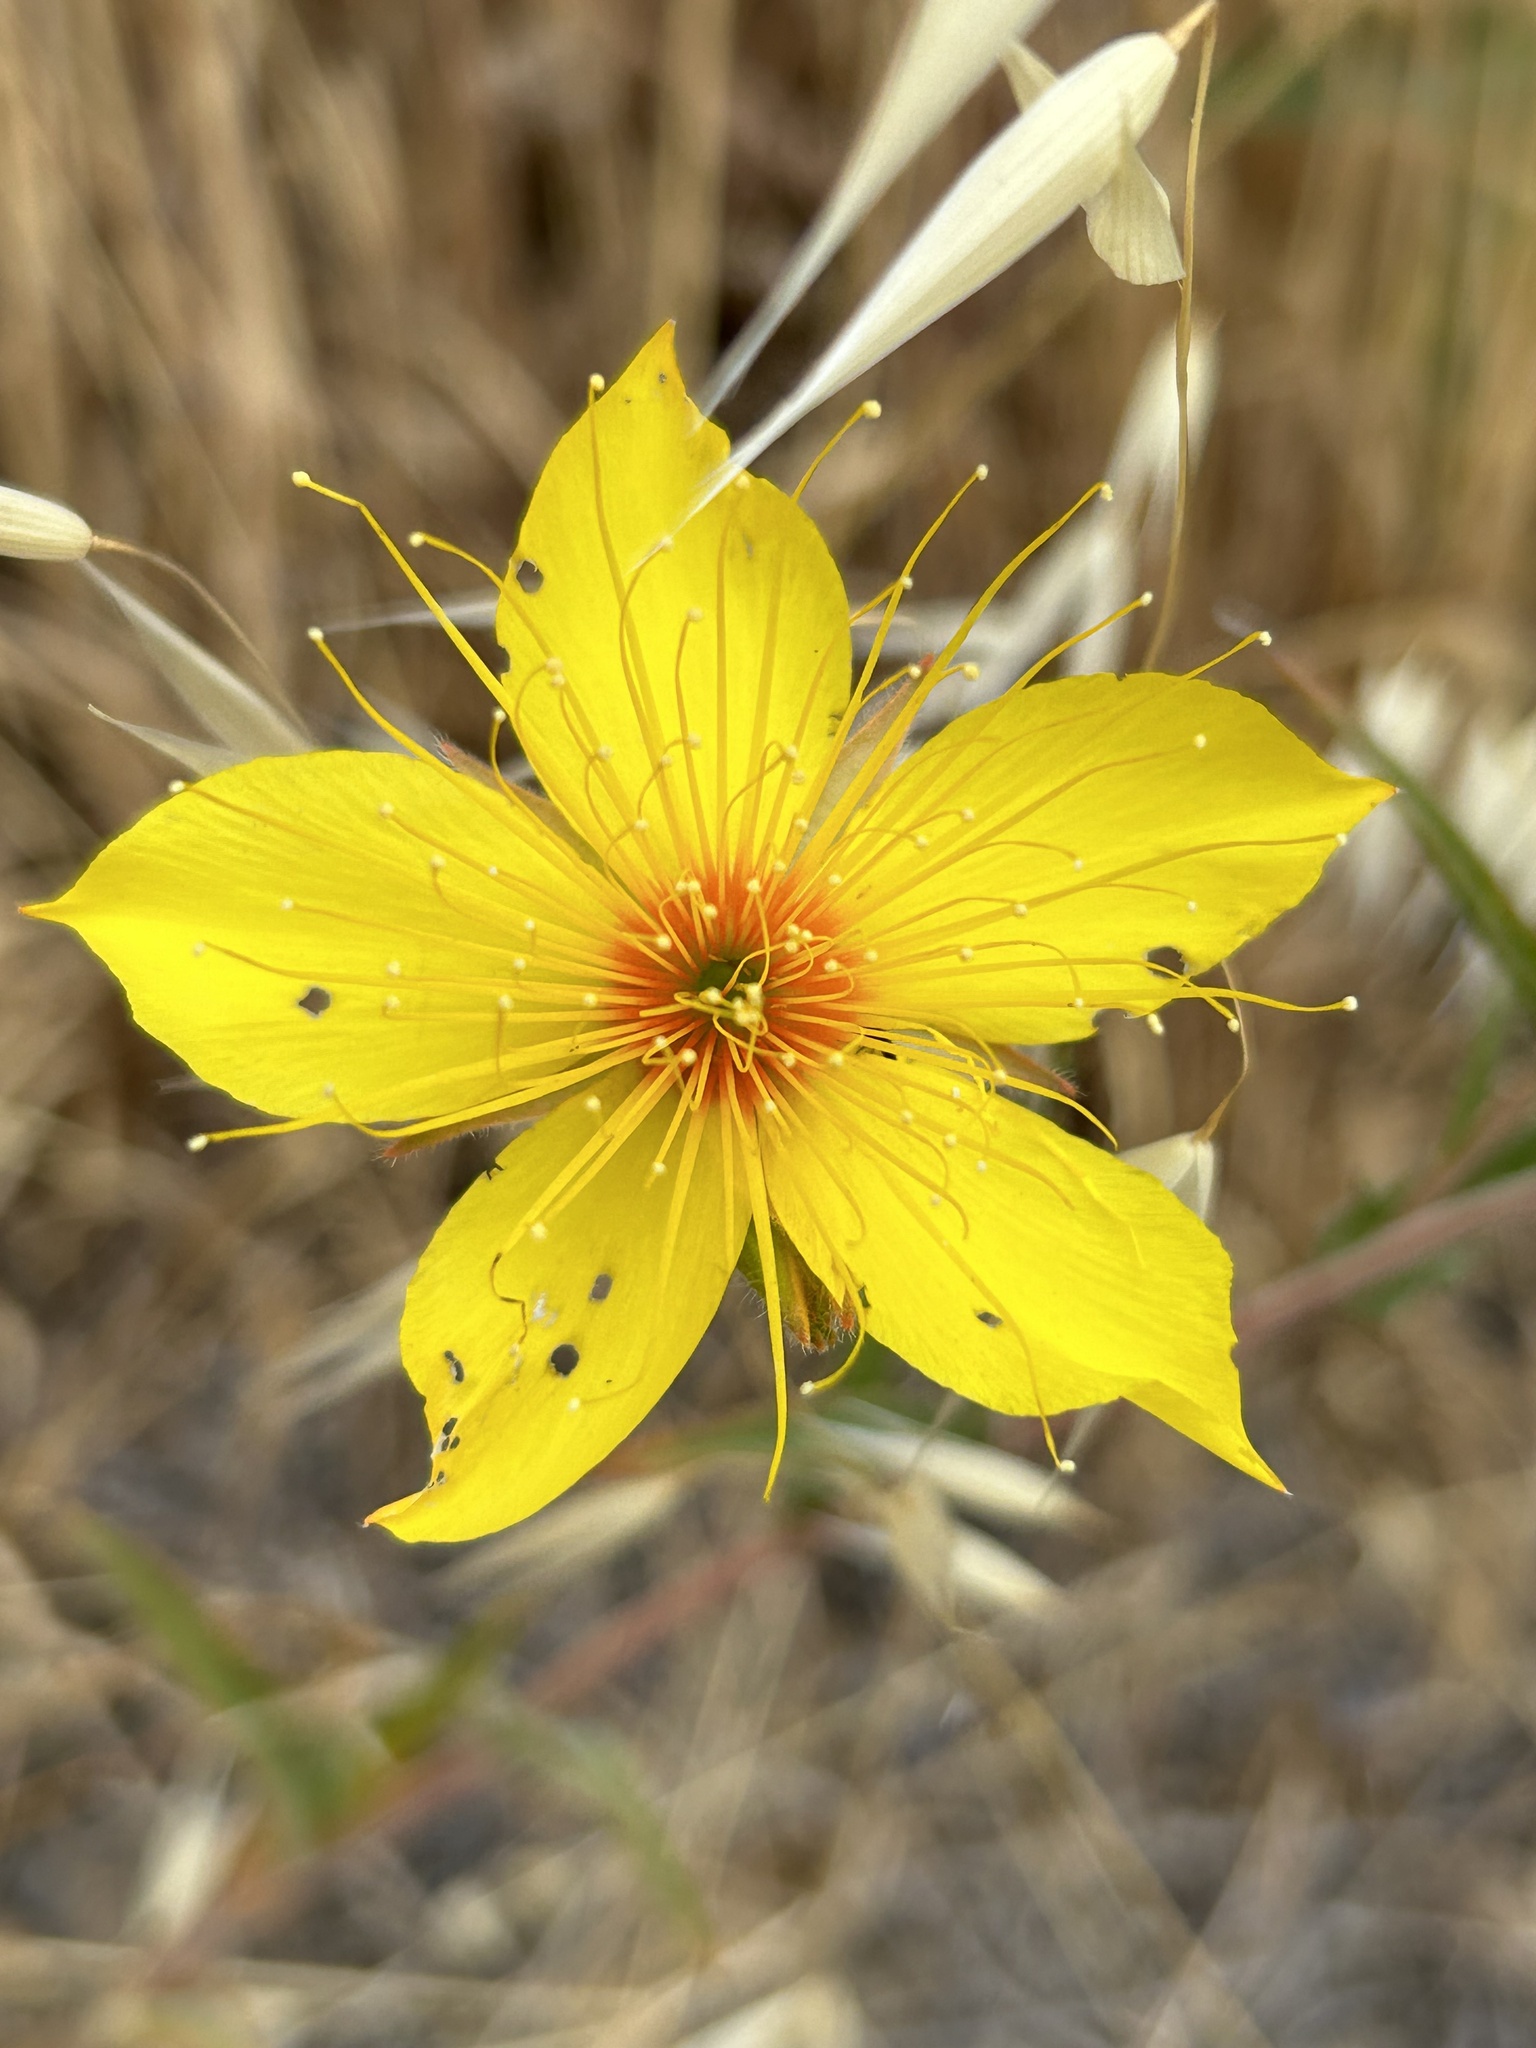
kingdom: Plantae
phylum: Tracheophyta
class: Magnoliopsida
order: Cornales
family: Loasaceae
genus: Mentzelia
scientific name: Mentzelia crocea
